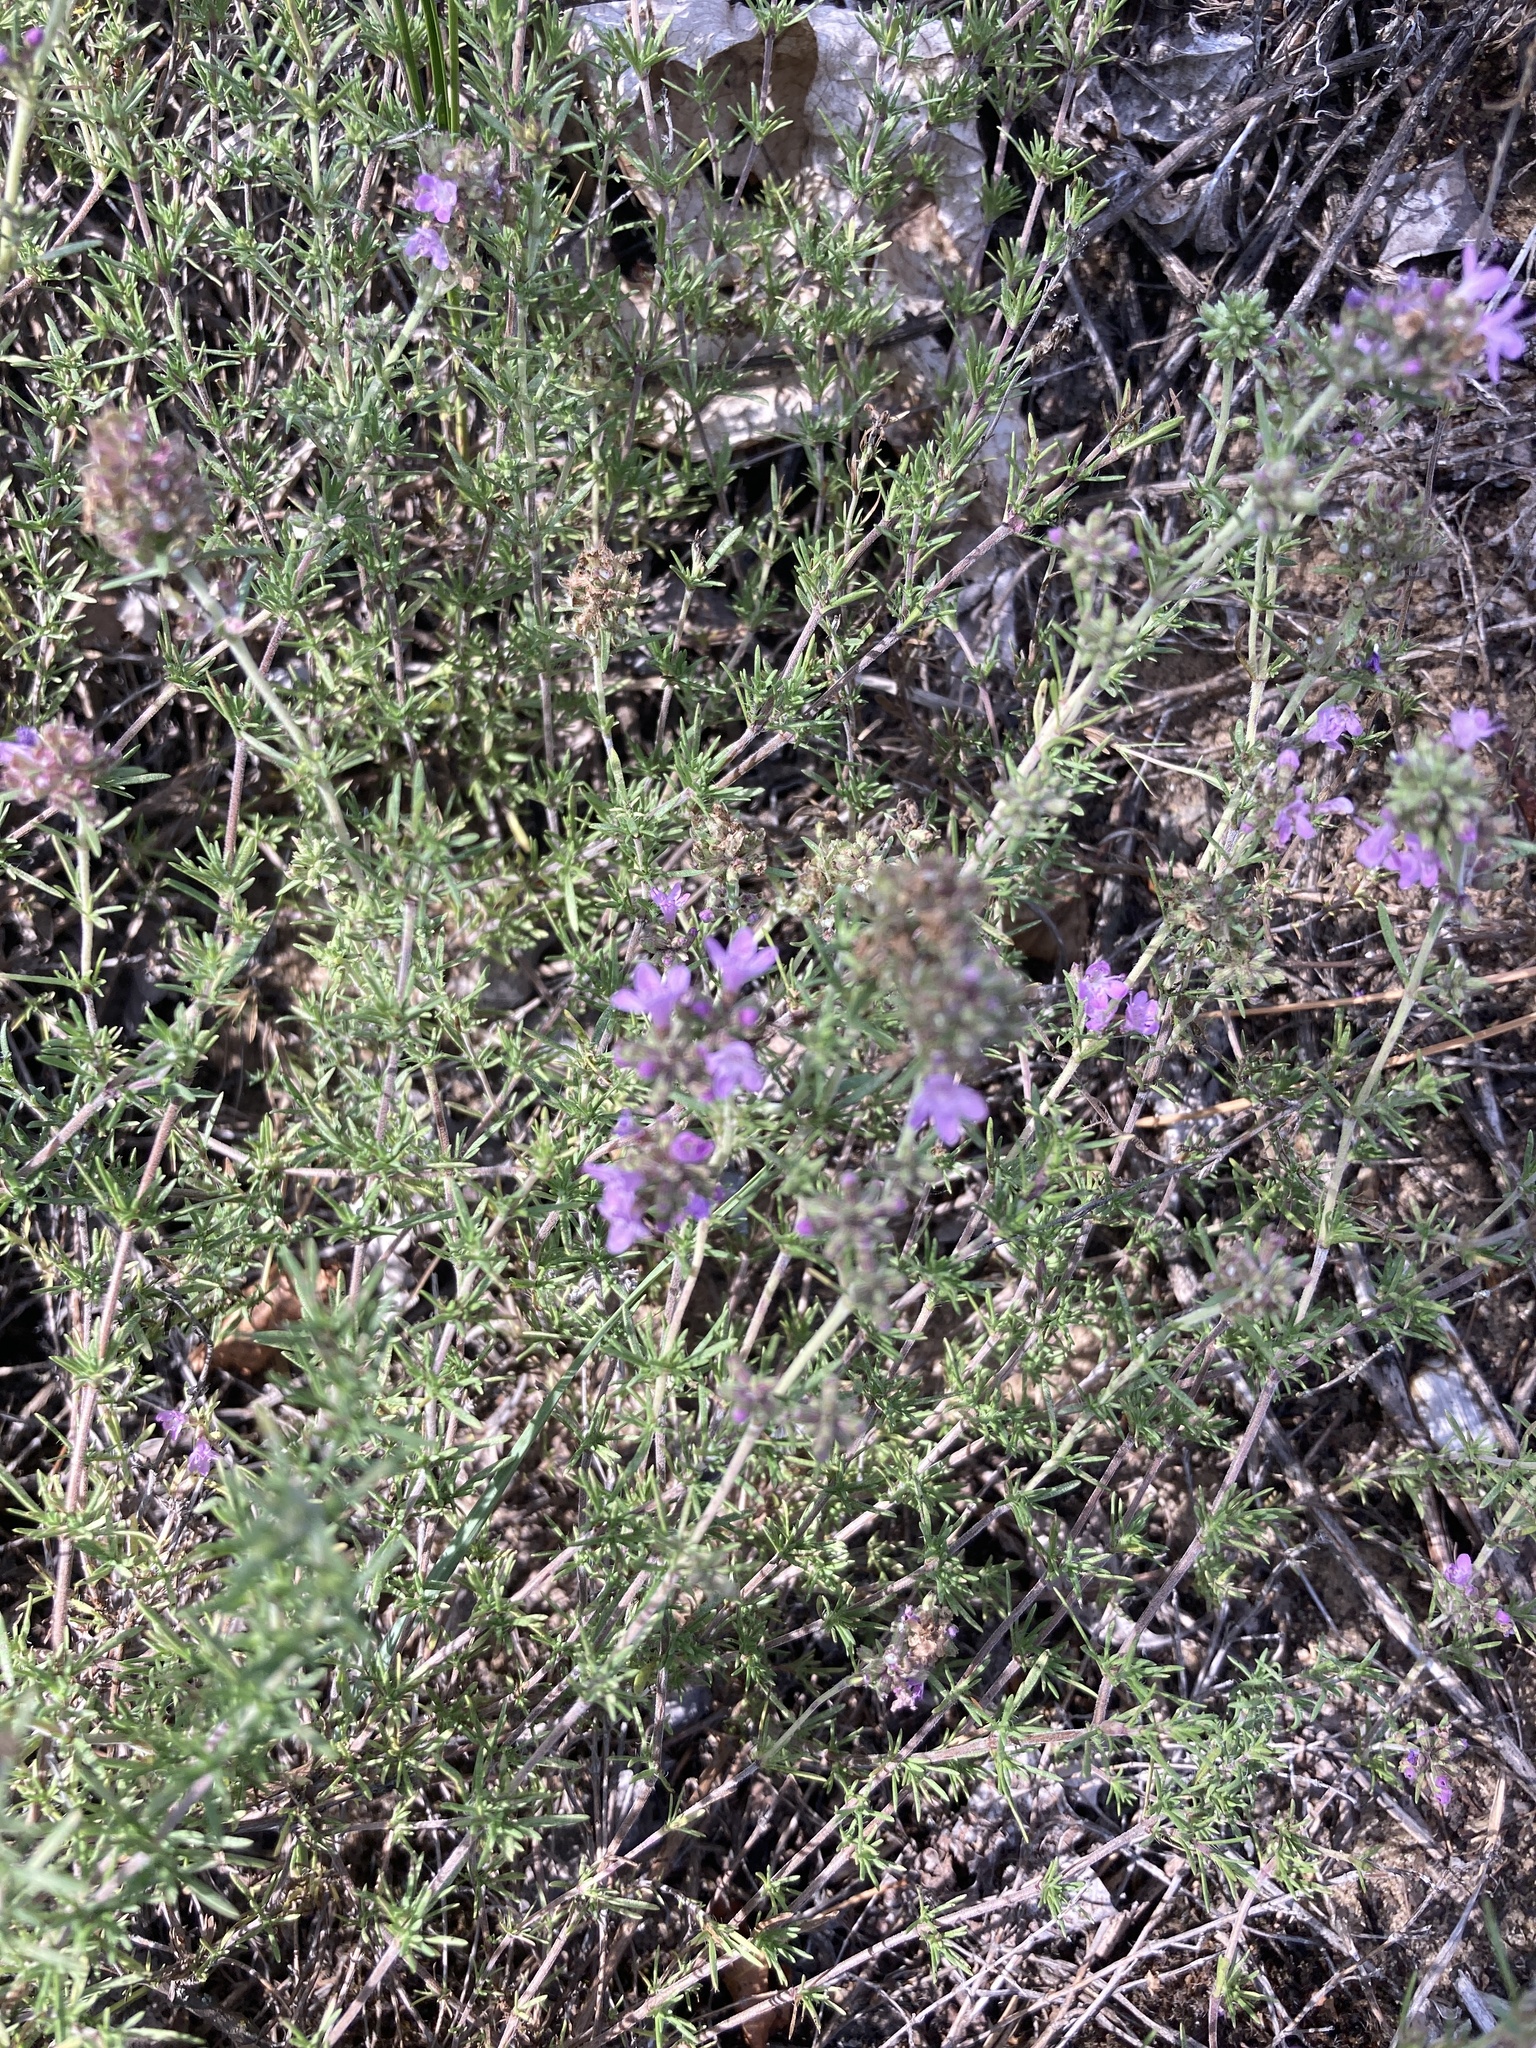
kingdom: Plantae
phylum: Tracheophyta
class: Magnoliopsida
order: Lamiales
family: Lamiaceae
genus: Thymus
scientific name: Thymus pallasianus
